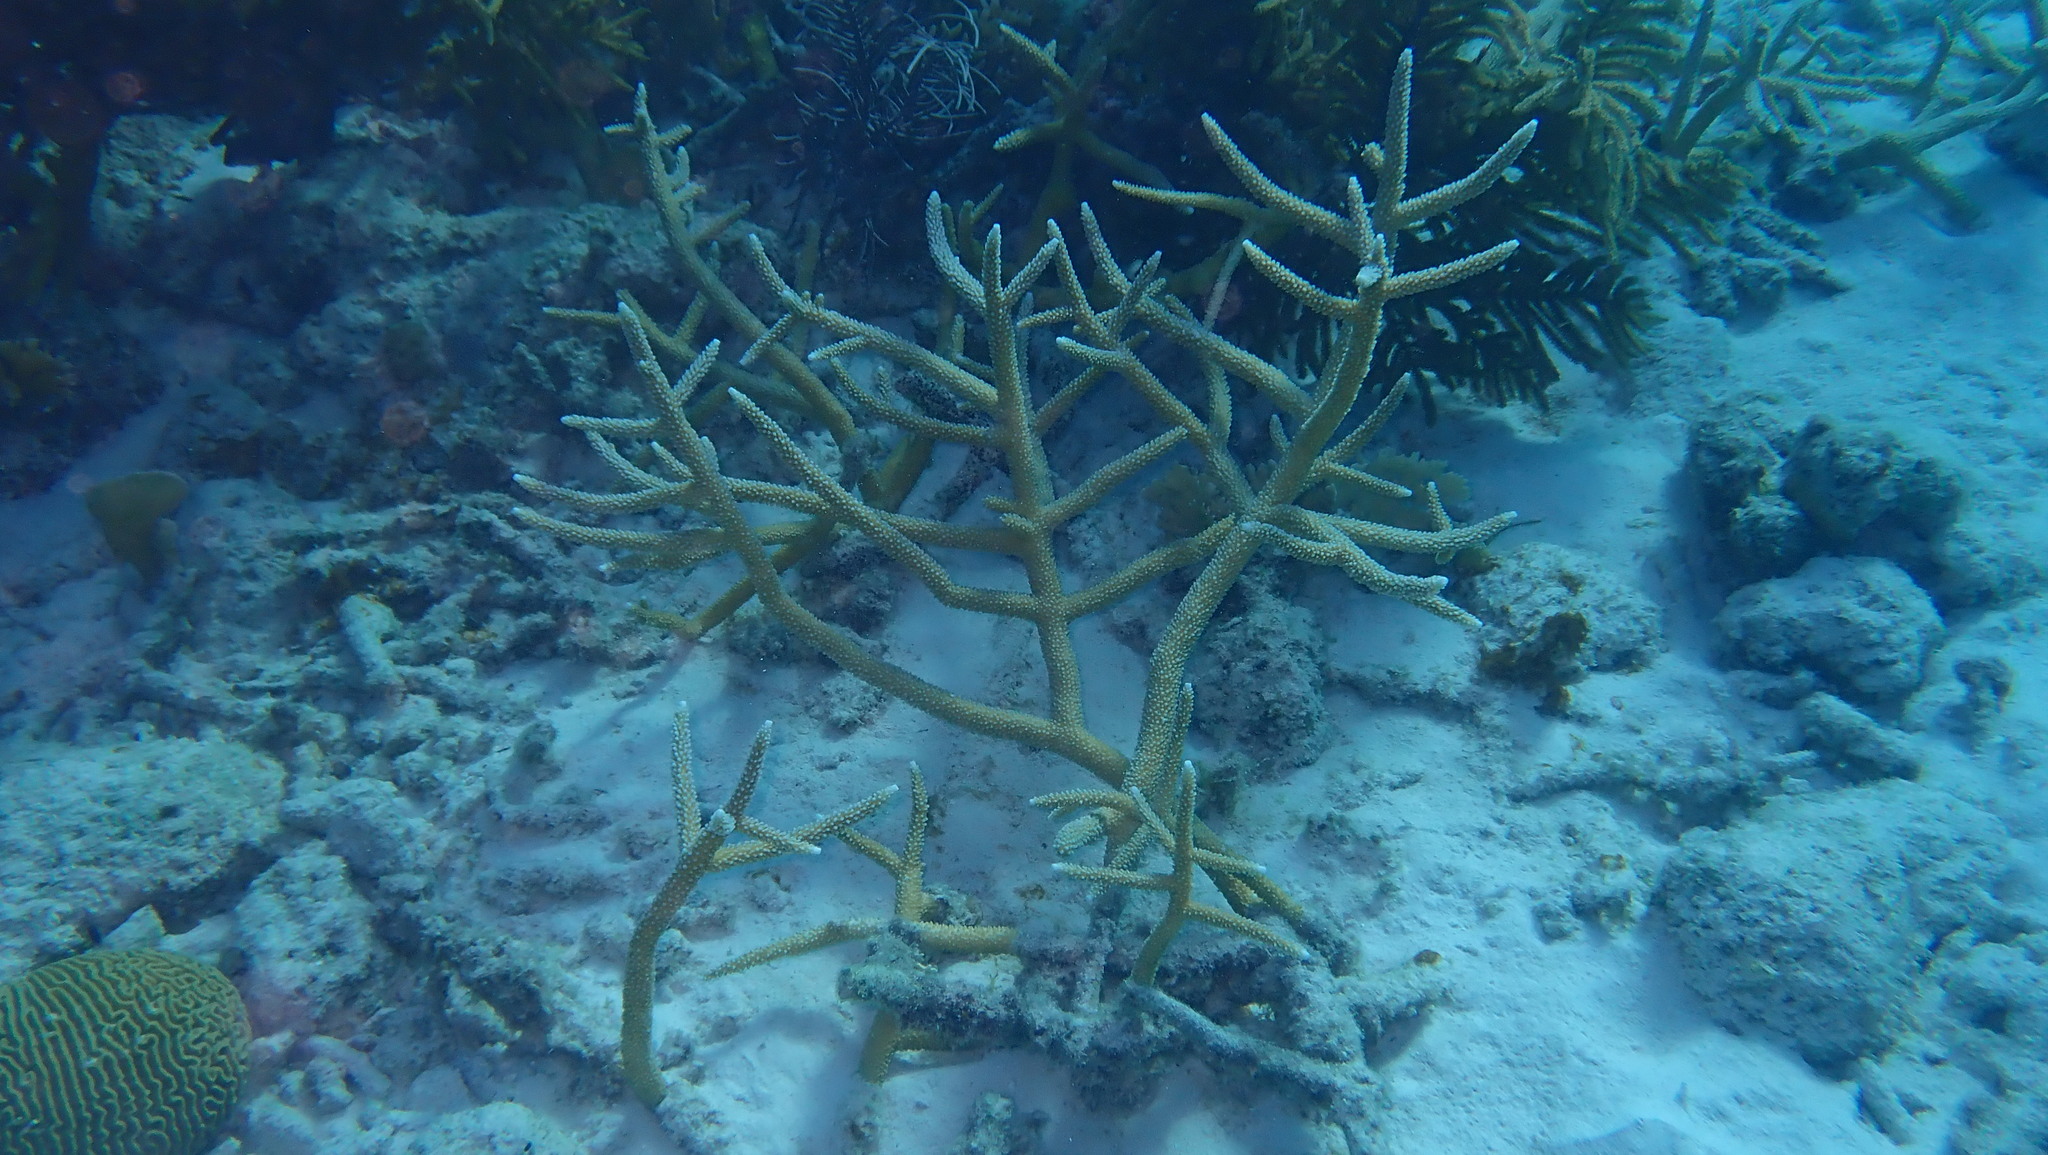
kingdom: Animalia
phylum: Cnidaria
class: Anthozoa
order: Scleractinia
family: Acroporidae
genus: Acropora
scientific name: Acropora cervicornis
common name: Staghorn coral
